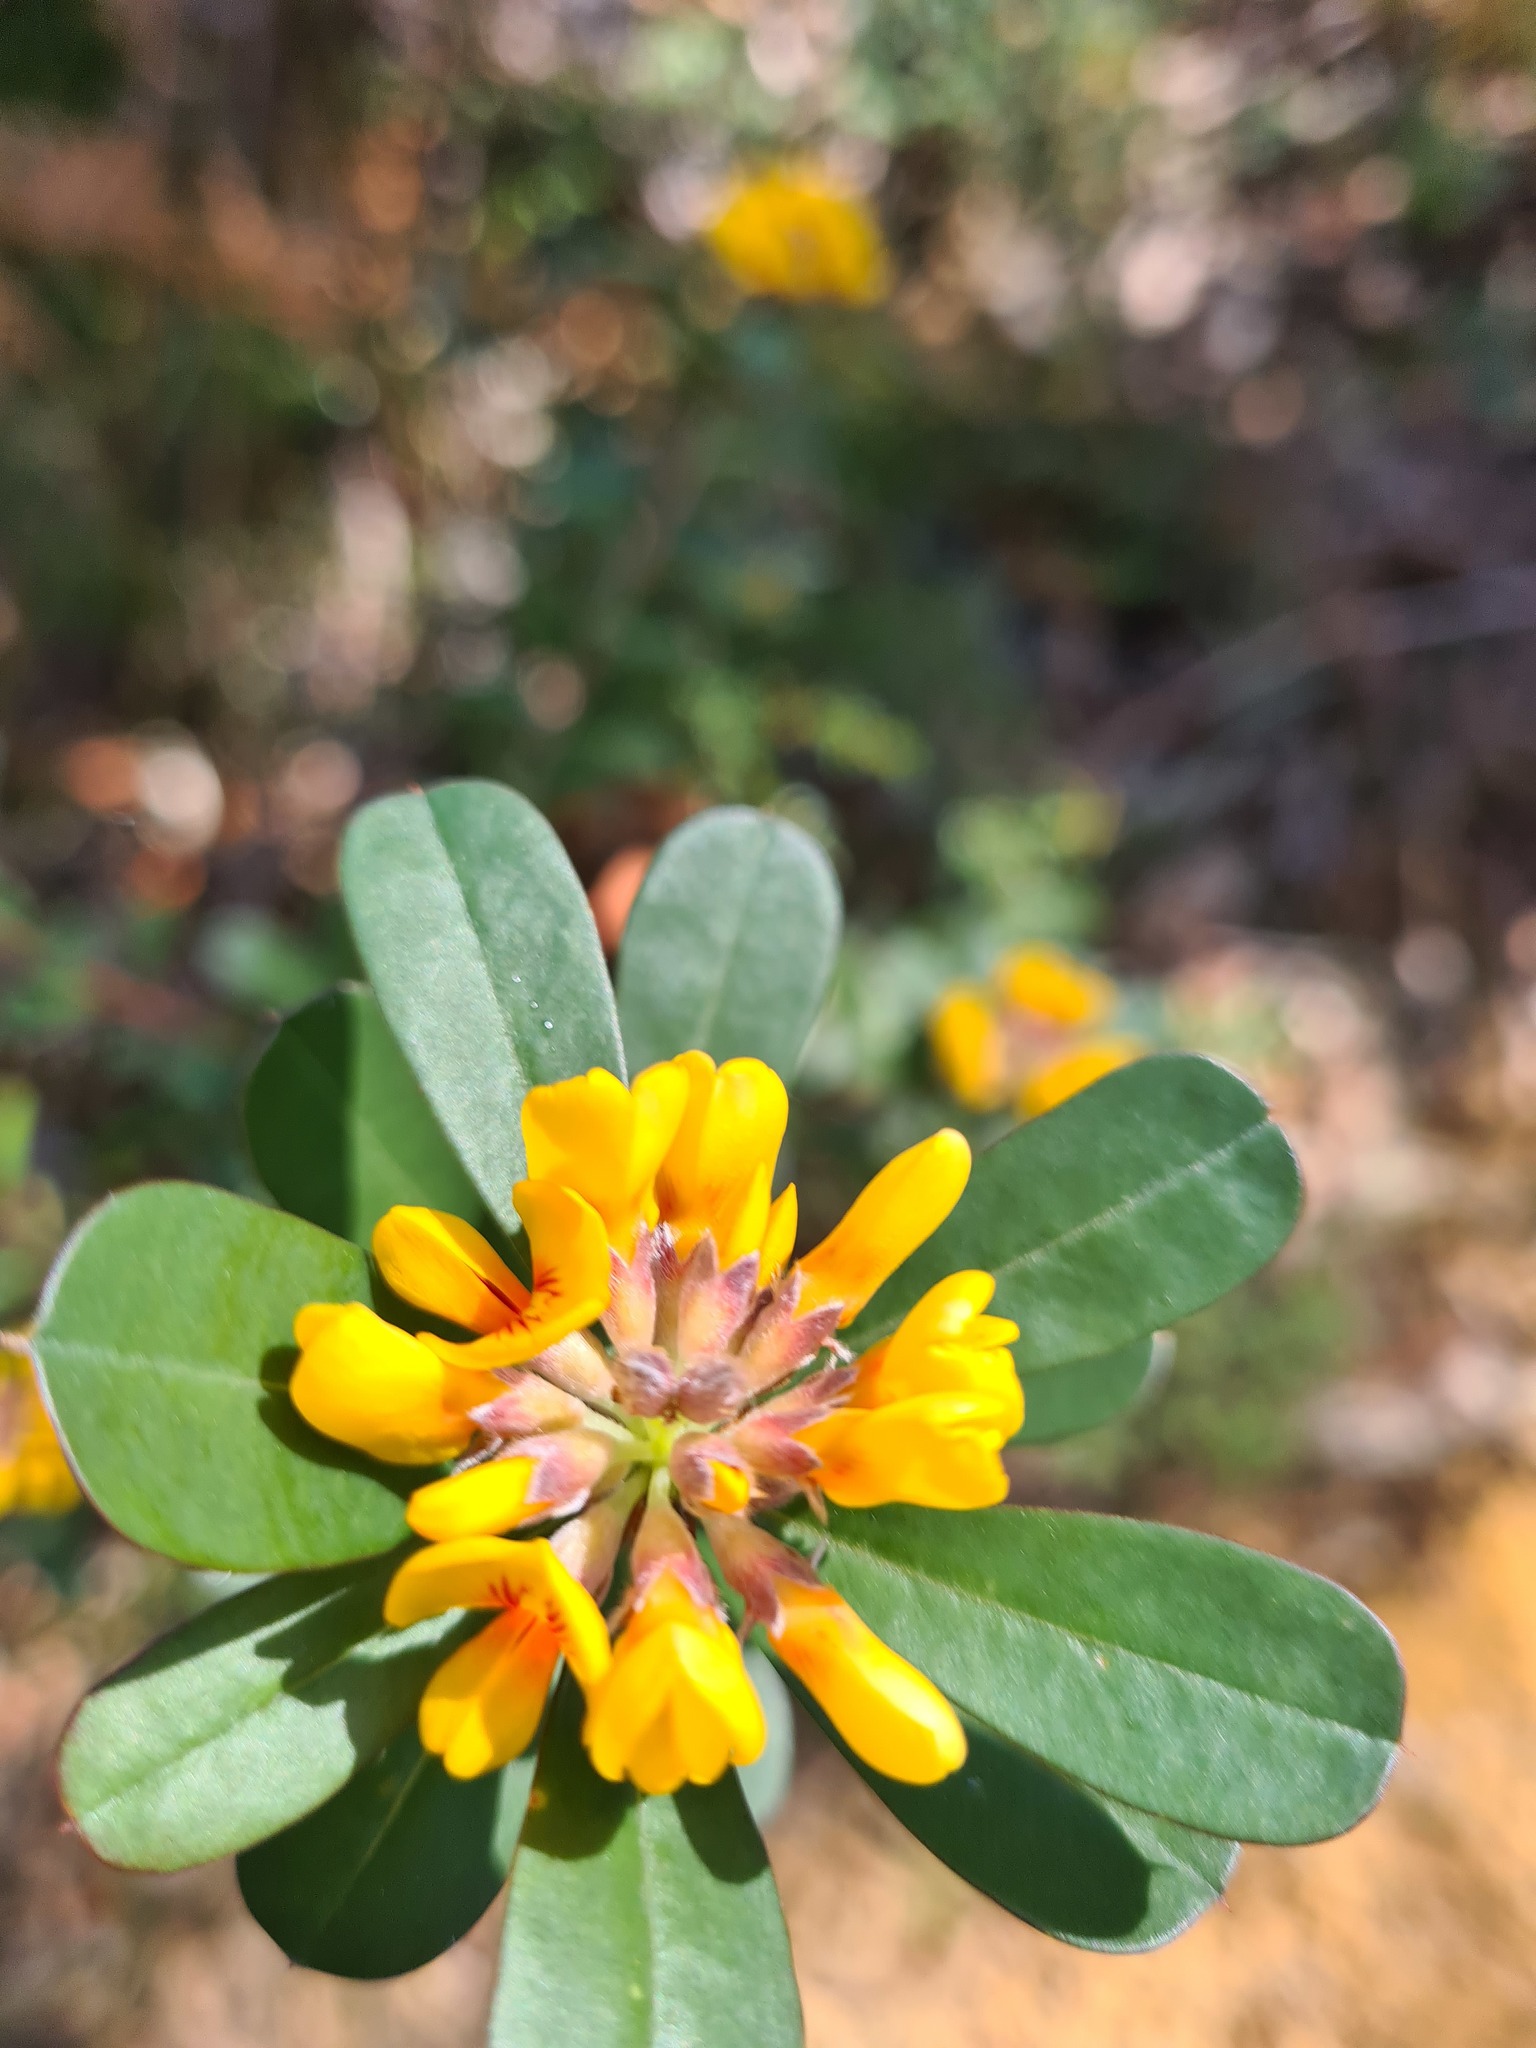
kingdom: Plantae
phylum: Tracheophyta
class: Magnoliopsida
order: Fabales
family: Fabaceae
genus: Pultenaea
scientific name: Pultenaea daphnoides
